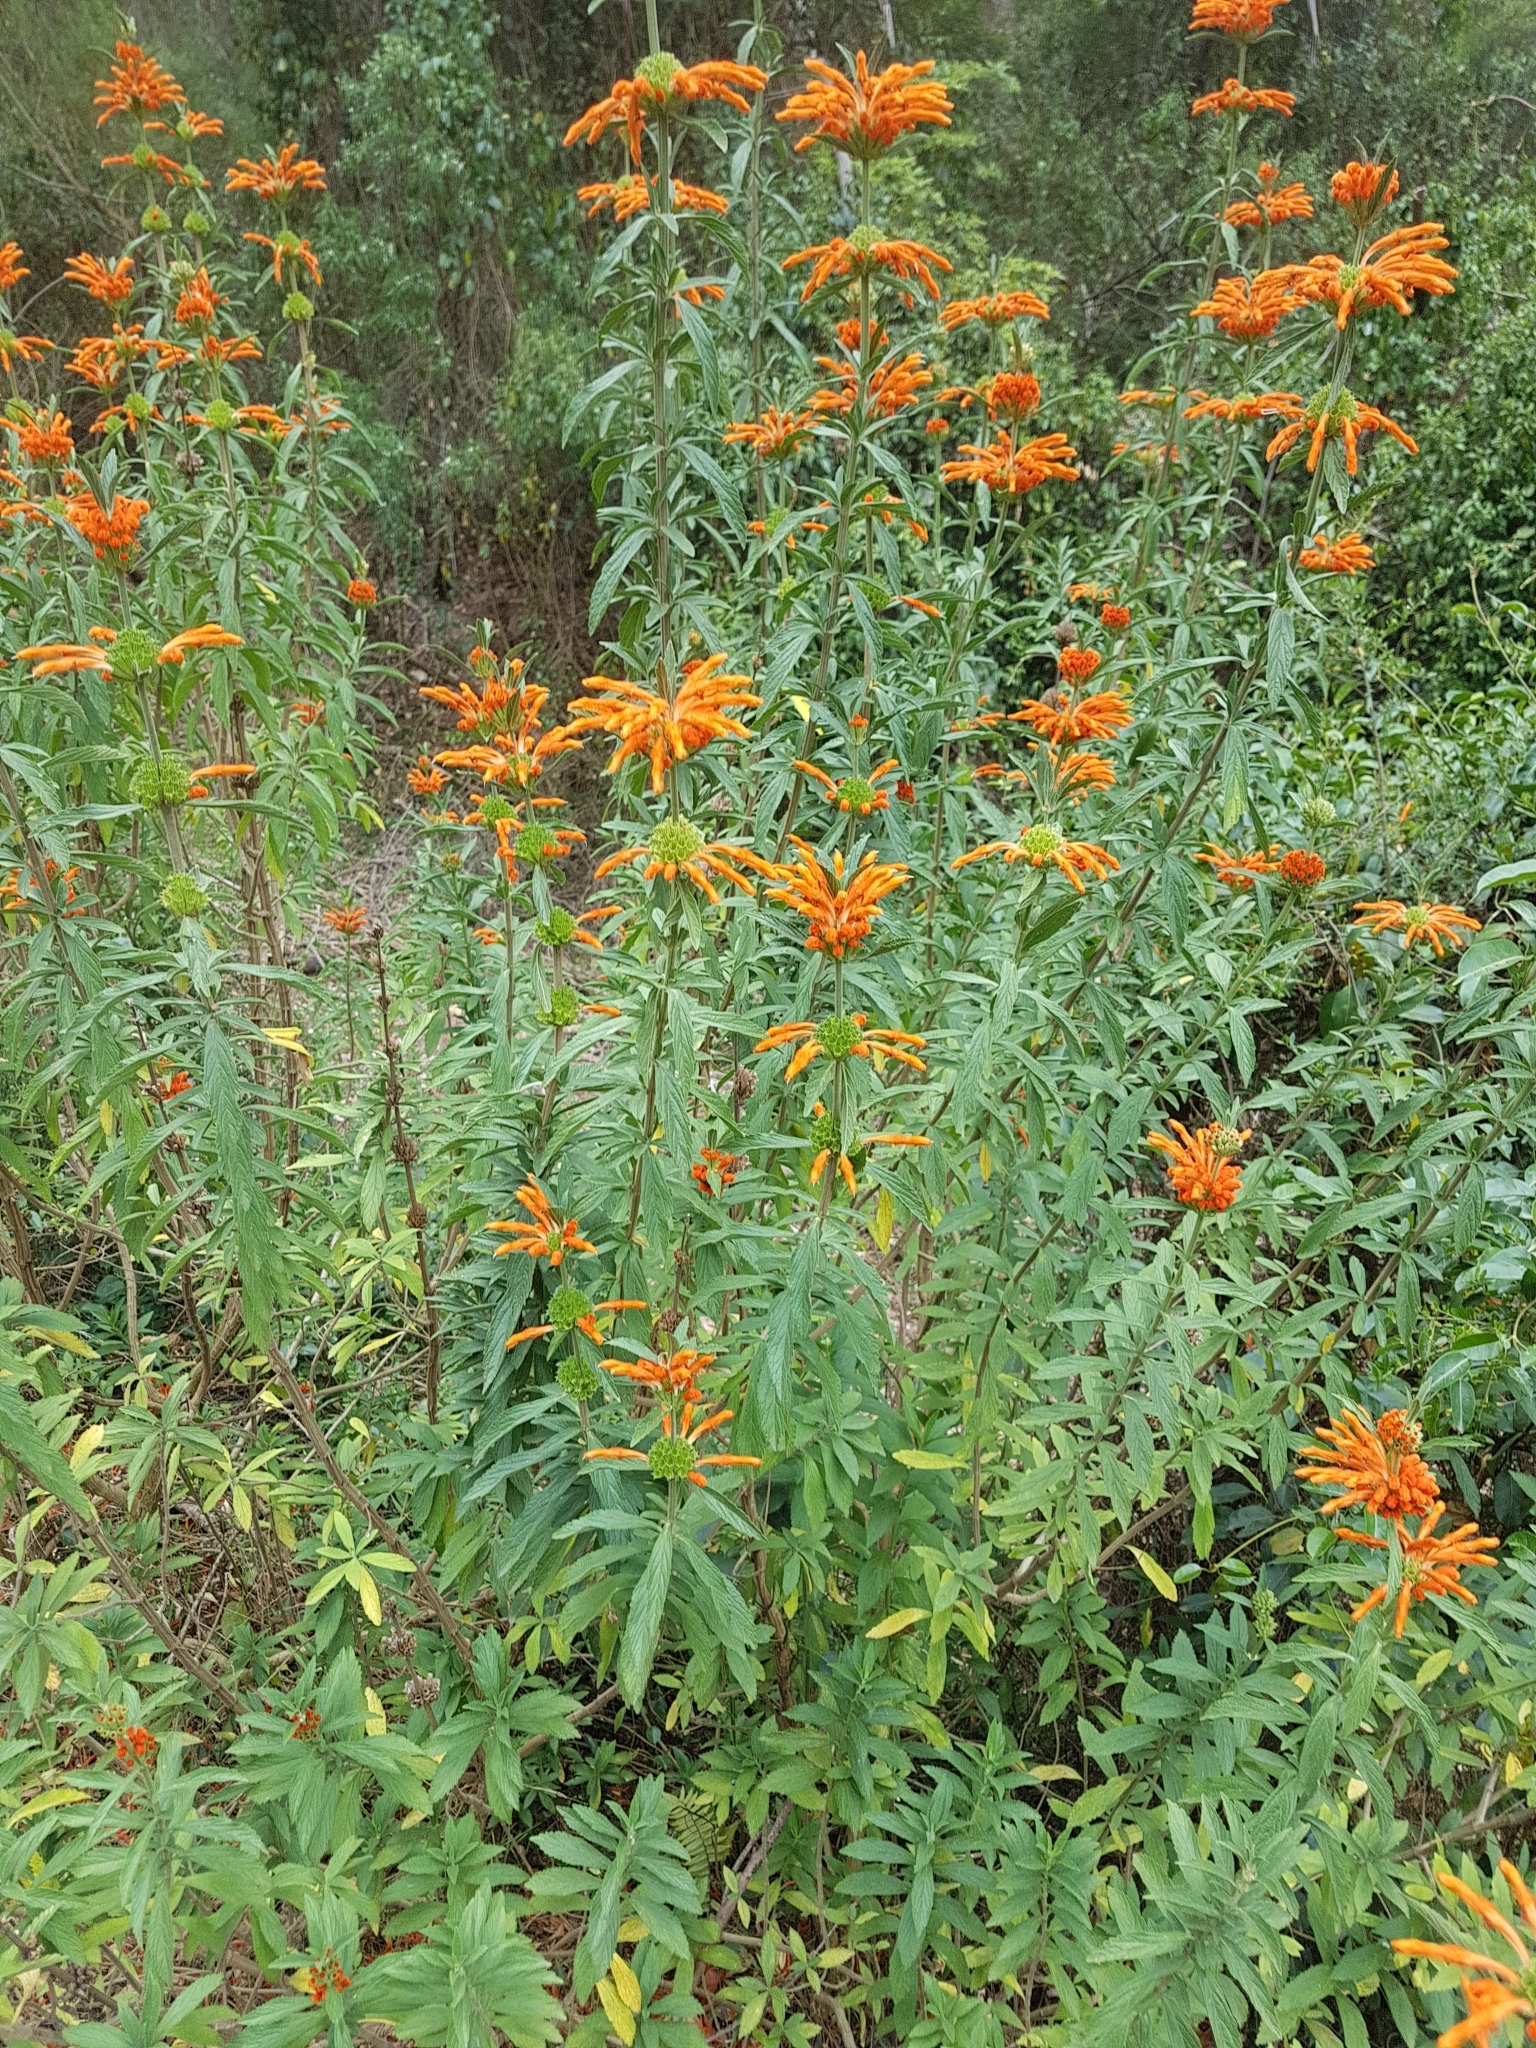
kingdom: Plantae
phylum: Tracheophyta
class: Magnoliopsida
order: Lamiales
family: Lamiaceae
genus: Leonotis
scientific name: Leonotis leonurus
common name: Lion's ear
